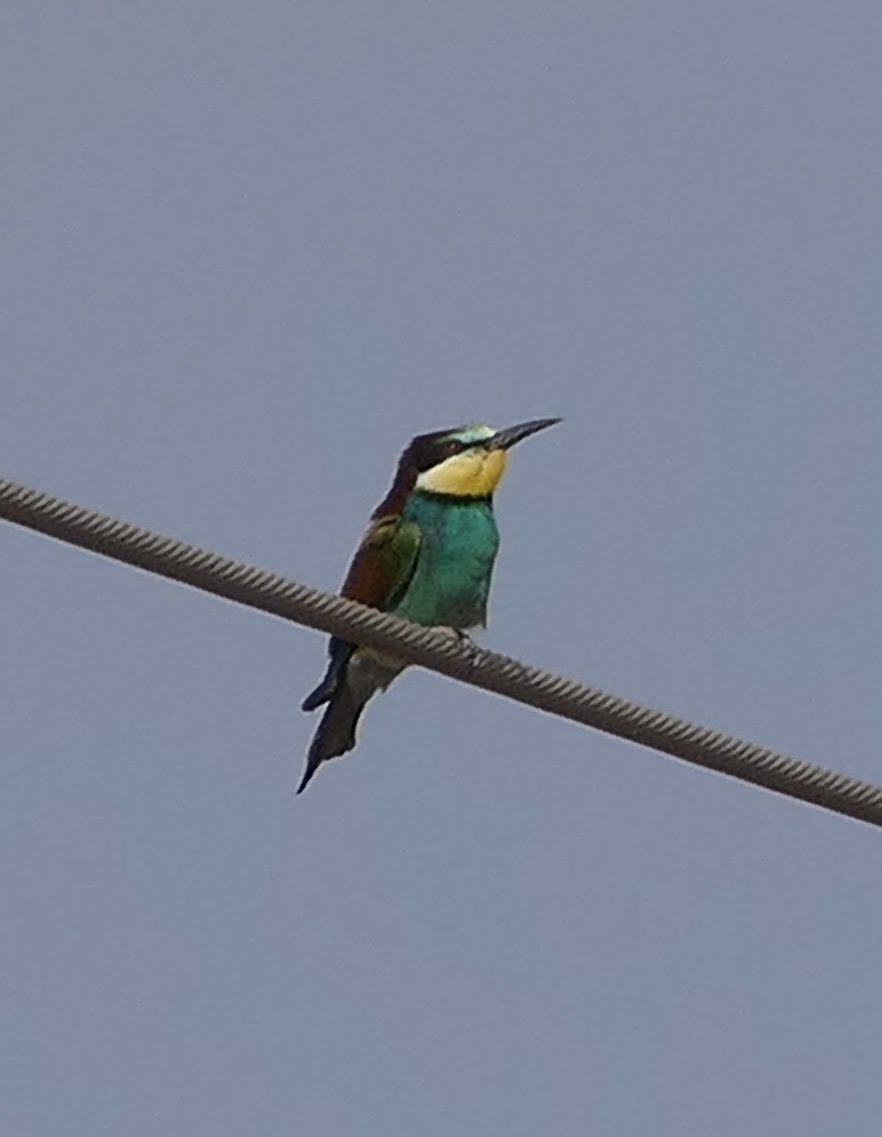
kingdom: Animalia
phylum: Chordata
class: Aves
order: Coraciiformes
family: Meropidae
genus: Merops
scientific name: Merops apiaster
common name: European bee-eater
